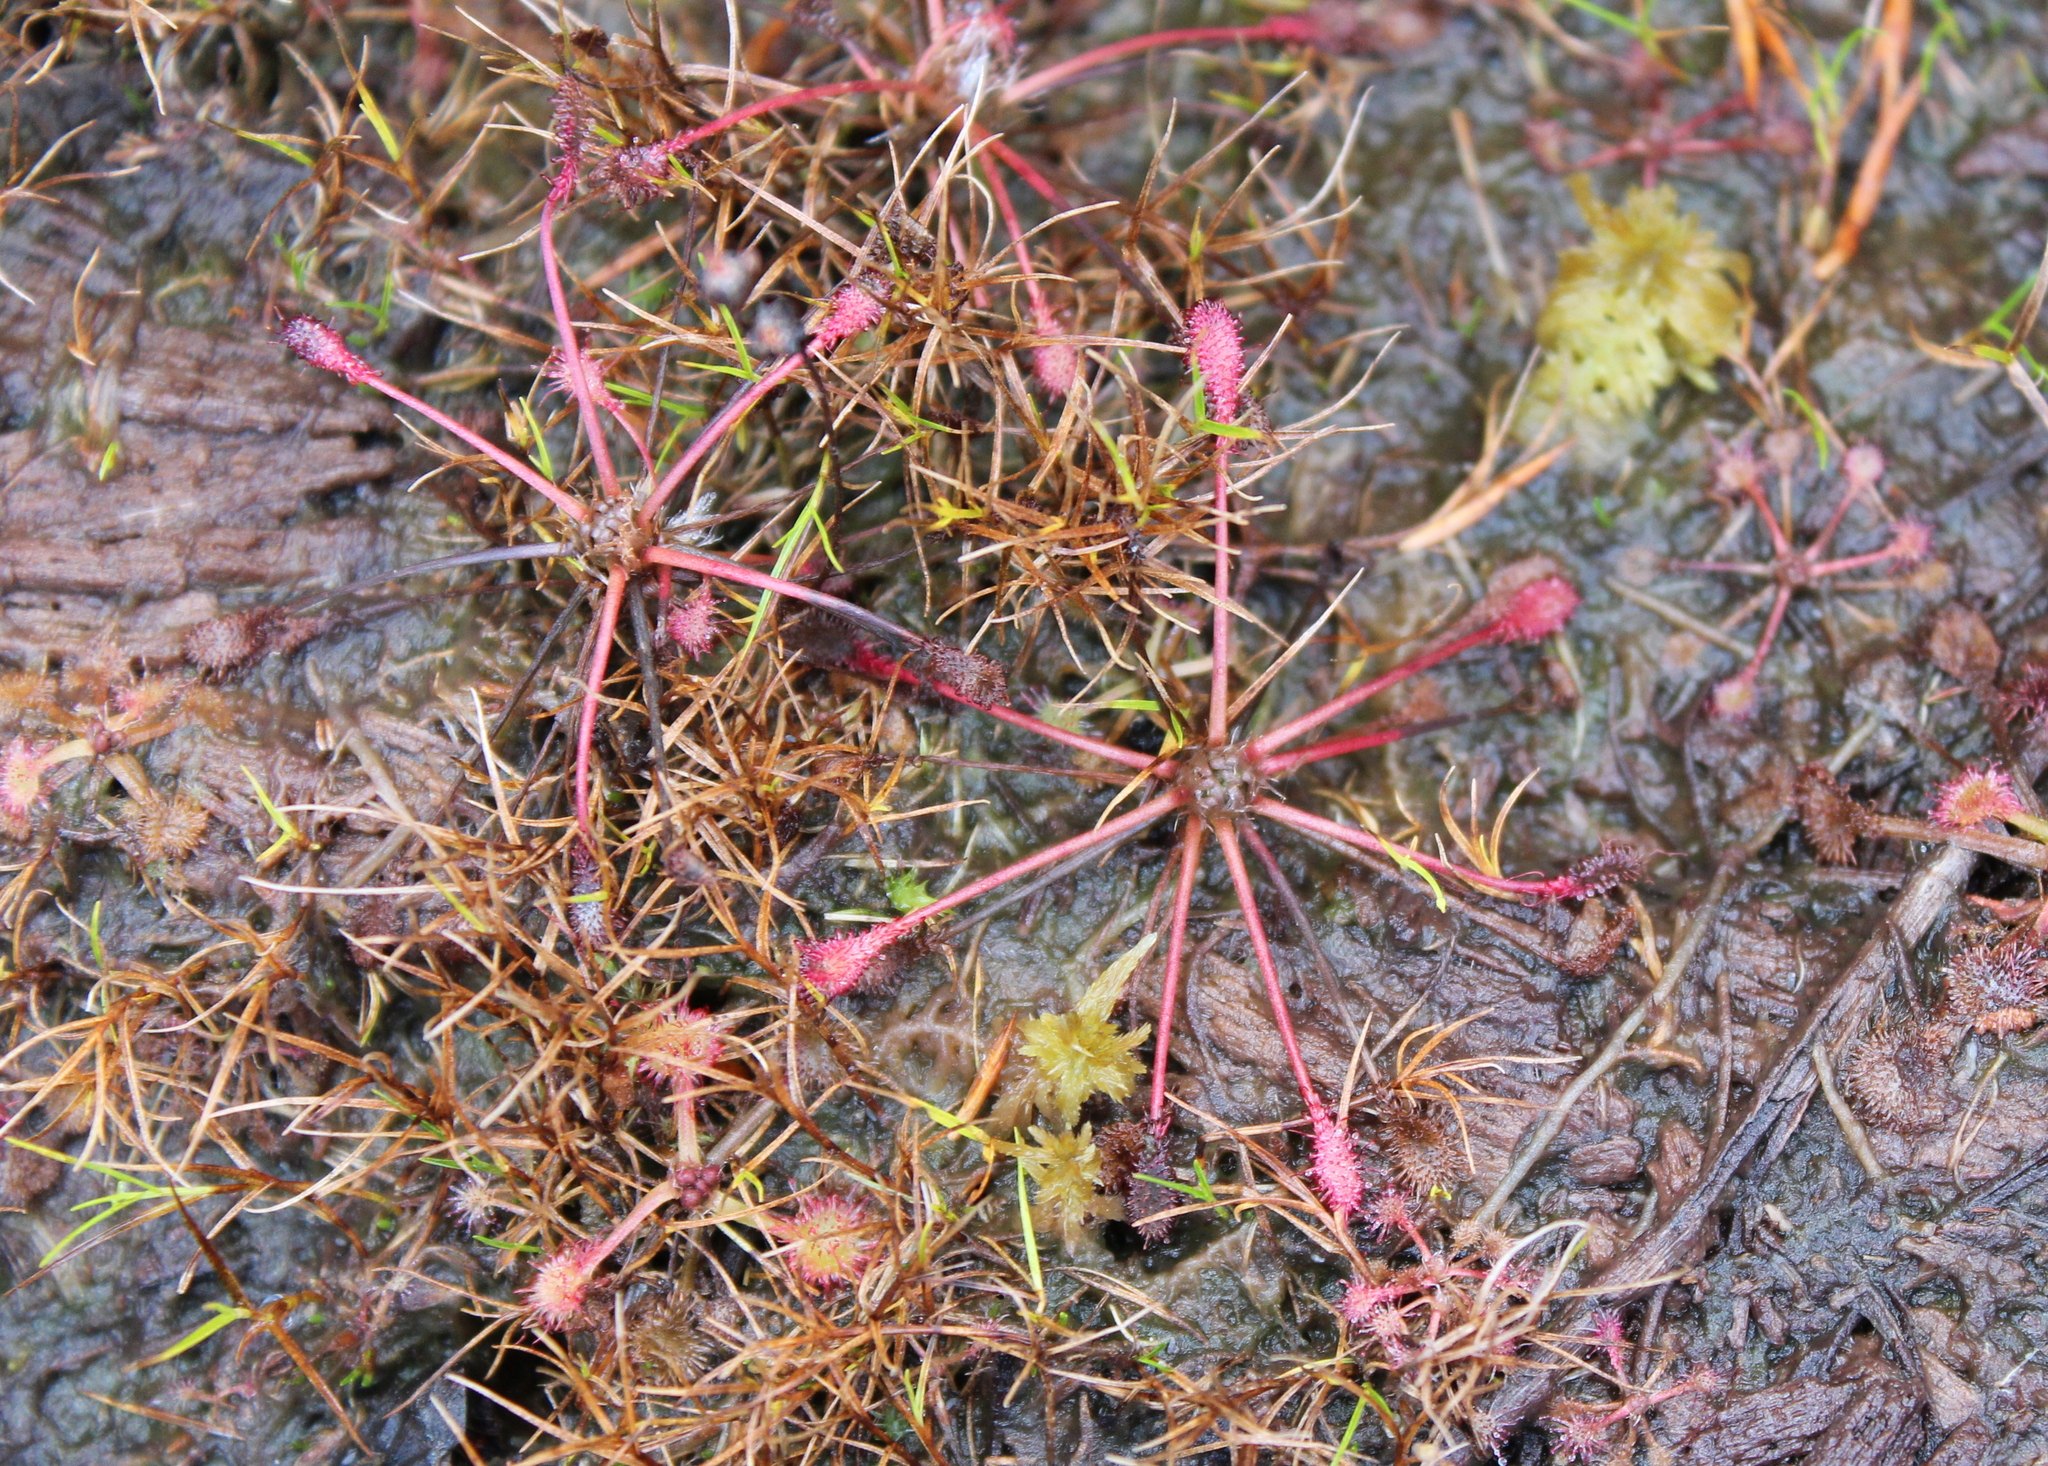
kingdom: Plantae
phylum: Tracheophyta
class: Magnoliopsida
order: Caryophyllales
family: Droseraceae
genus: Drosera
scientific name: Drosera intermedia
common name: Oblong-leaved sundew
